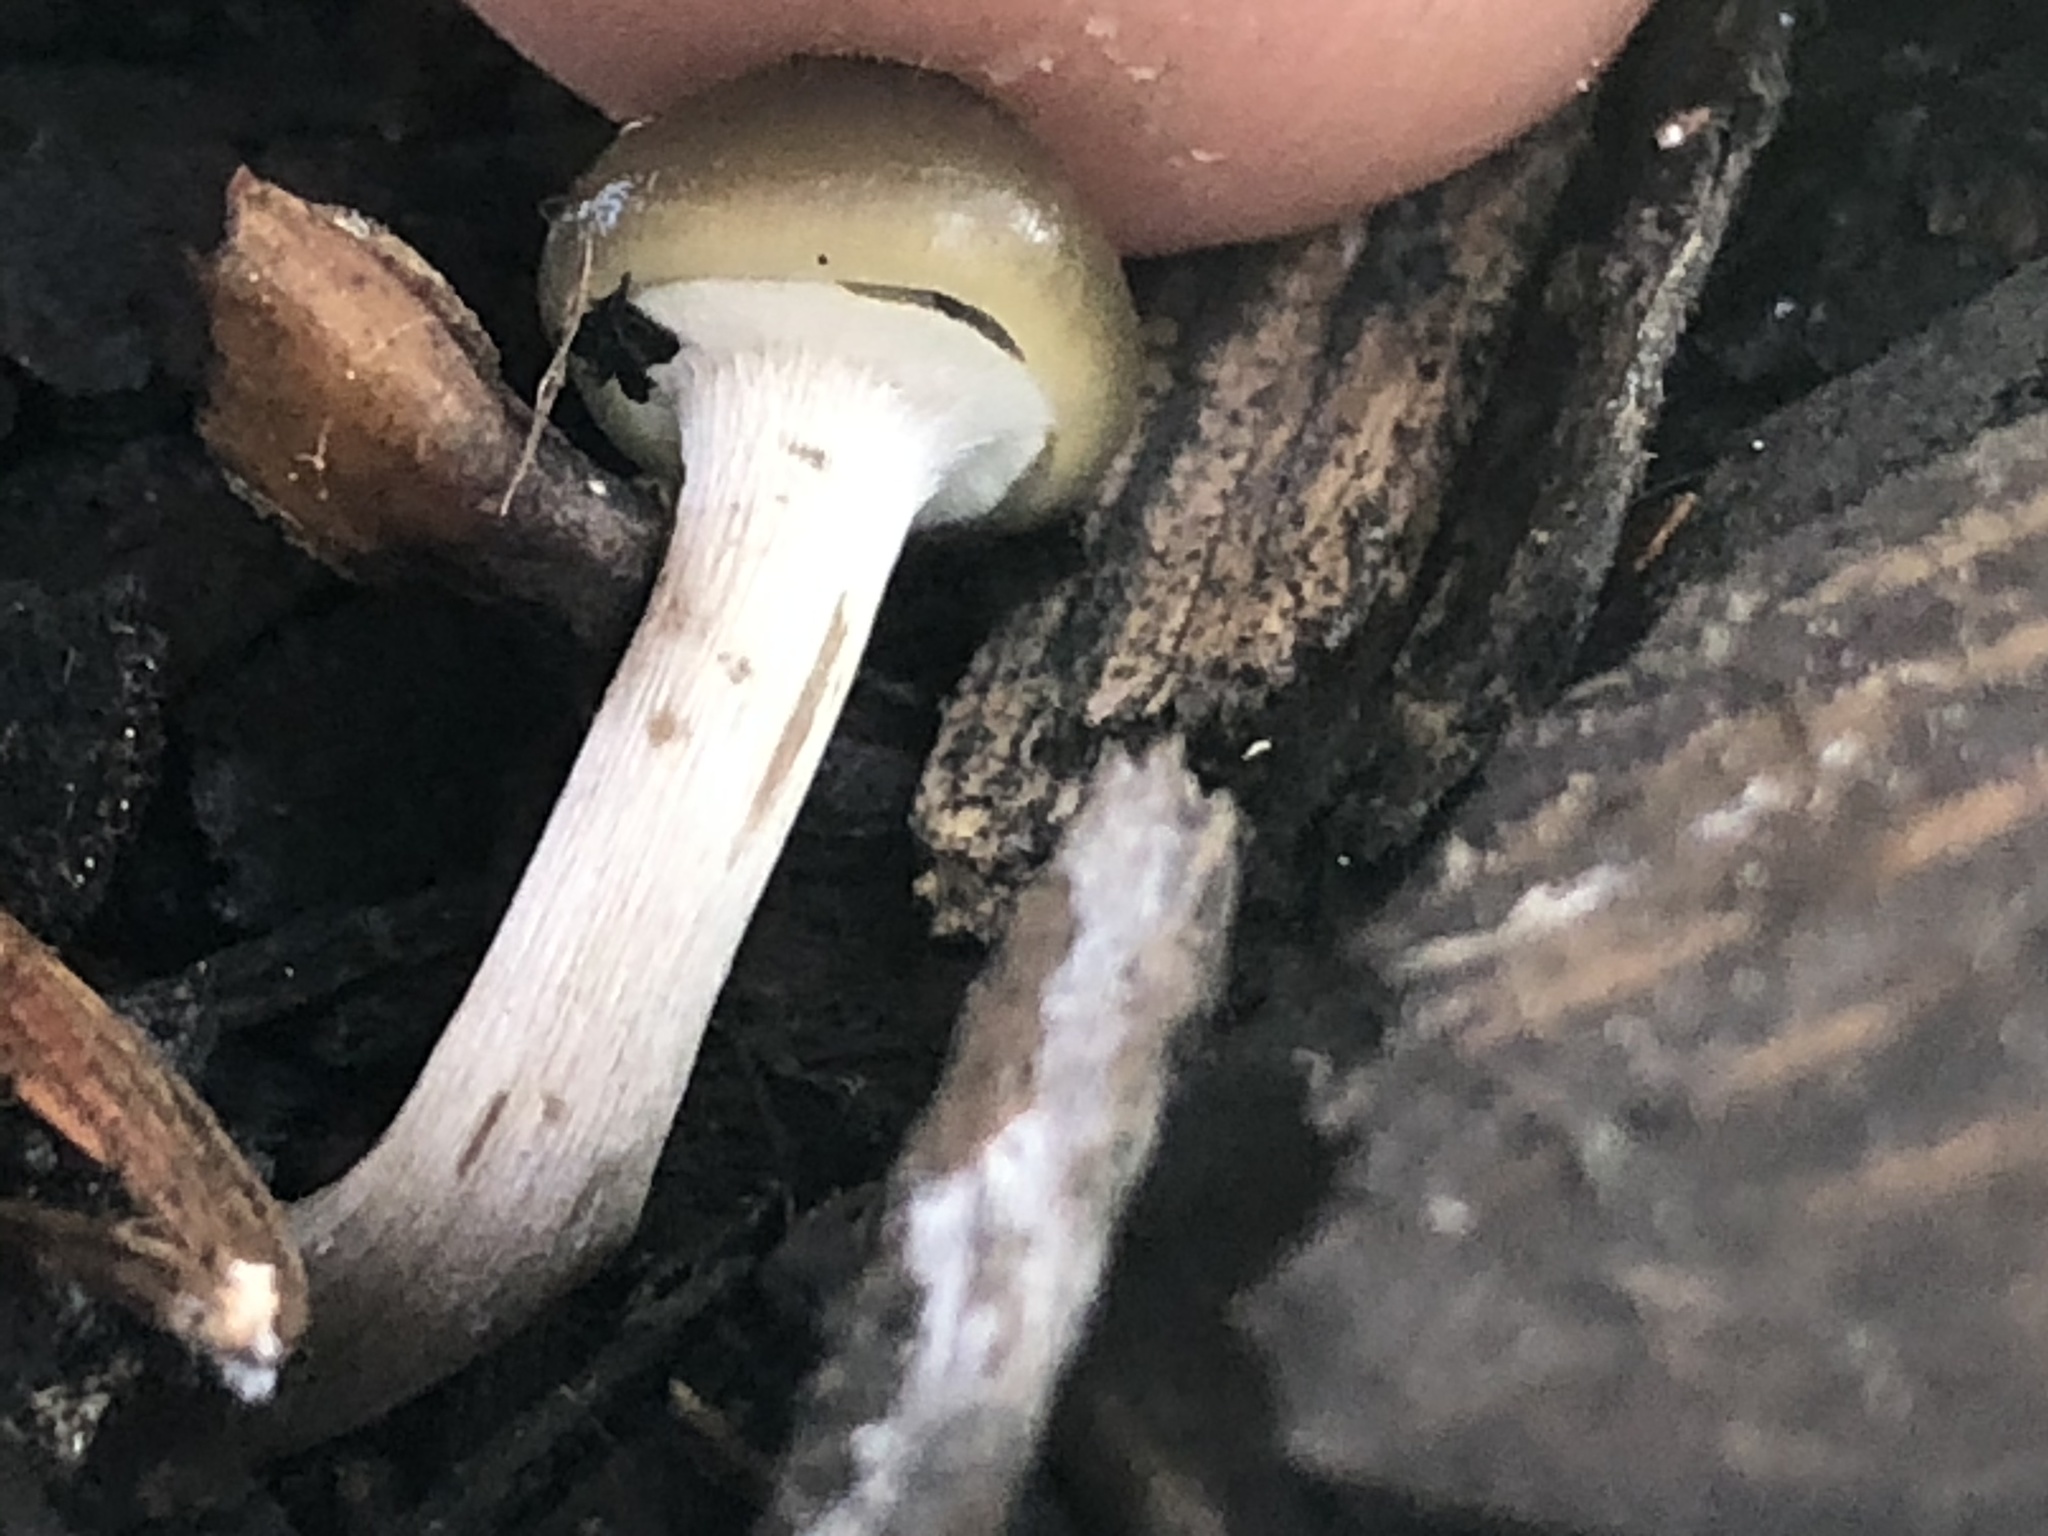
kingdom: Fungi
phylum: Basidiomycota
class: Agaricomycetes
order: Agaricales
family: Hymenogastraceae
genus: Psilocybe
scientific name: Psilocybe stuntzii
